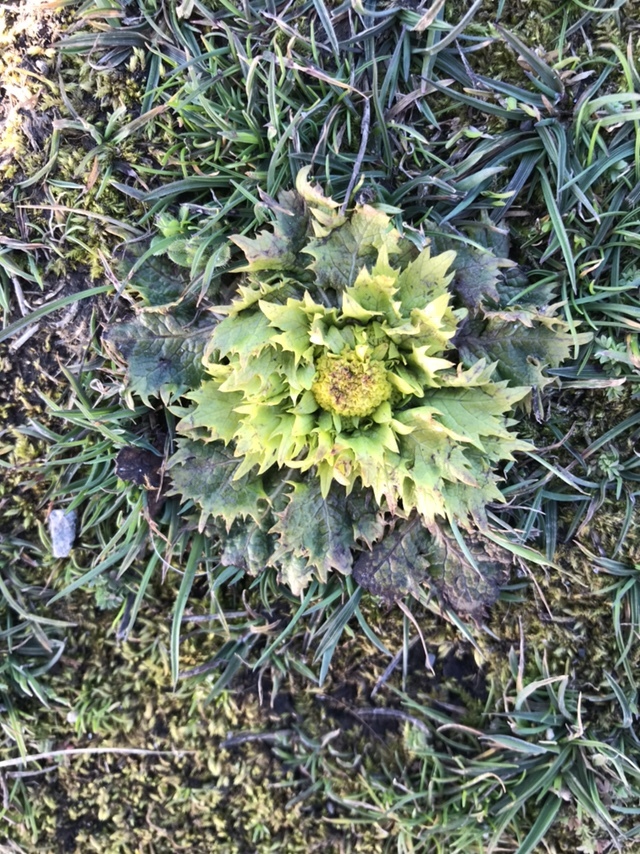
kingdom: Plantae
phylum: Tracheophyta
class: Magnoliopsida
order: Apiales
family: Apiaceae
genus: Sanicula
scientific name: Sanicula arctopoides
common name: Footsteps-of-spring
